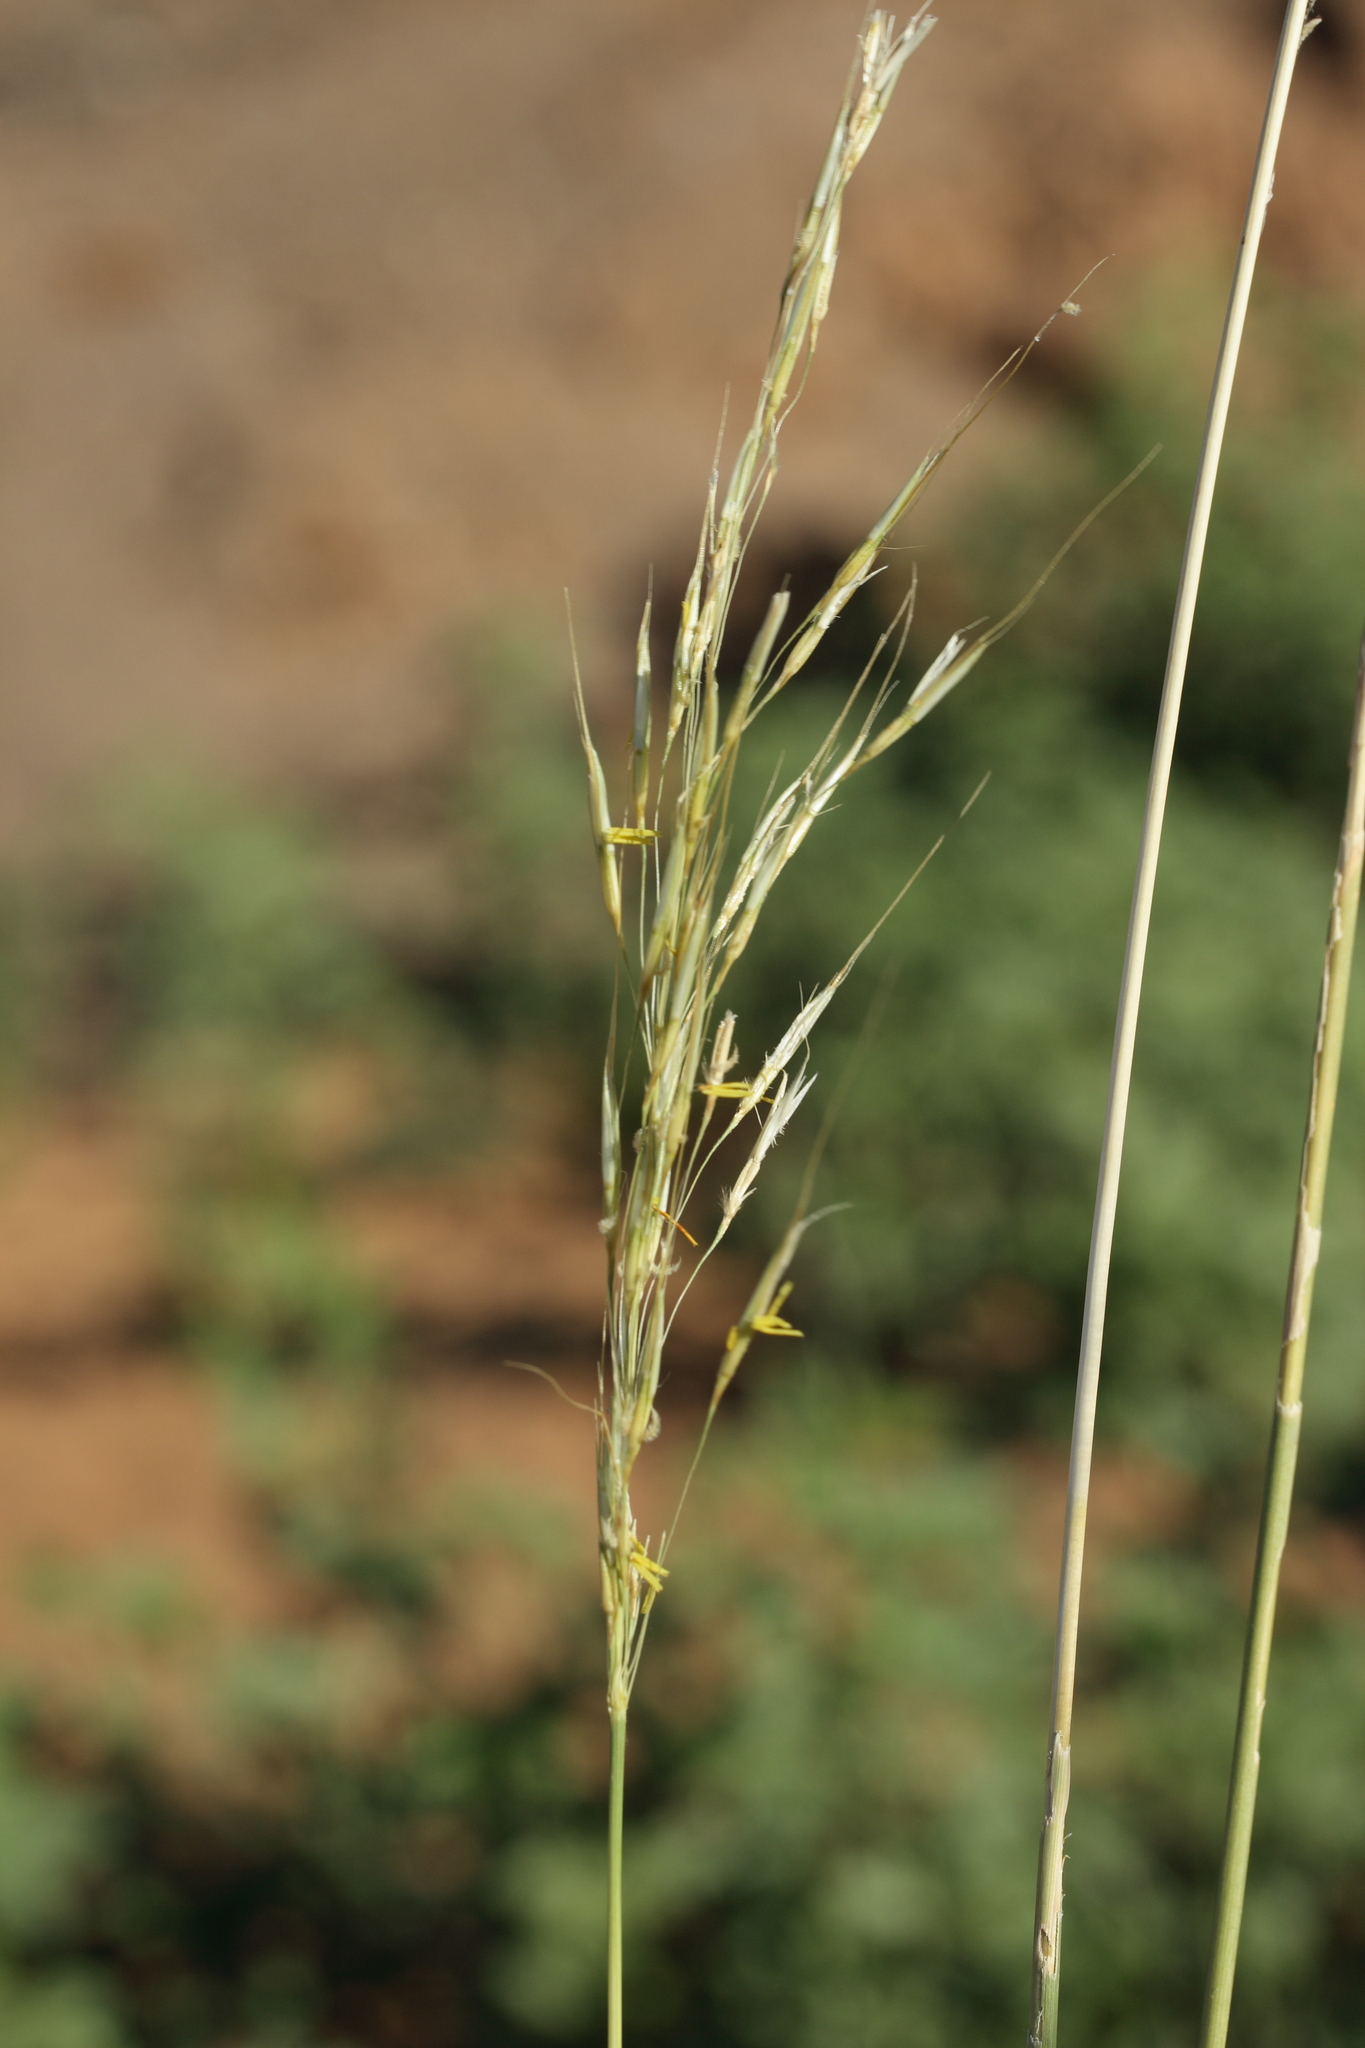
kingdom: Plantae
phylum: Tracheophyta
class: Liliopsida
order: Poales
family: Poaceae
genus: Chrysopogon
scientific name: Chrysopogon fallax
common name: Golden beard grass
